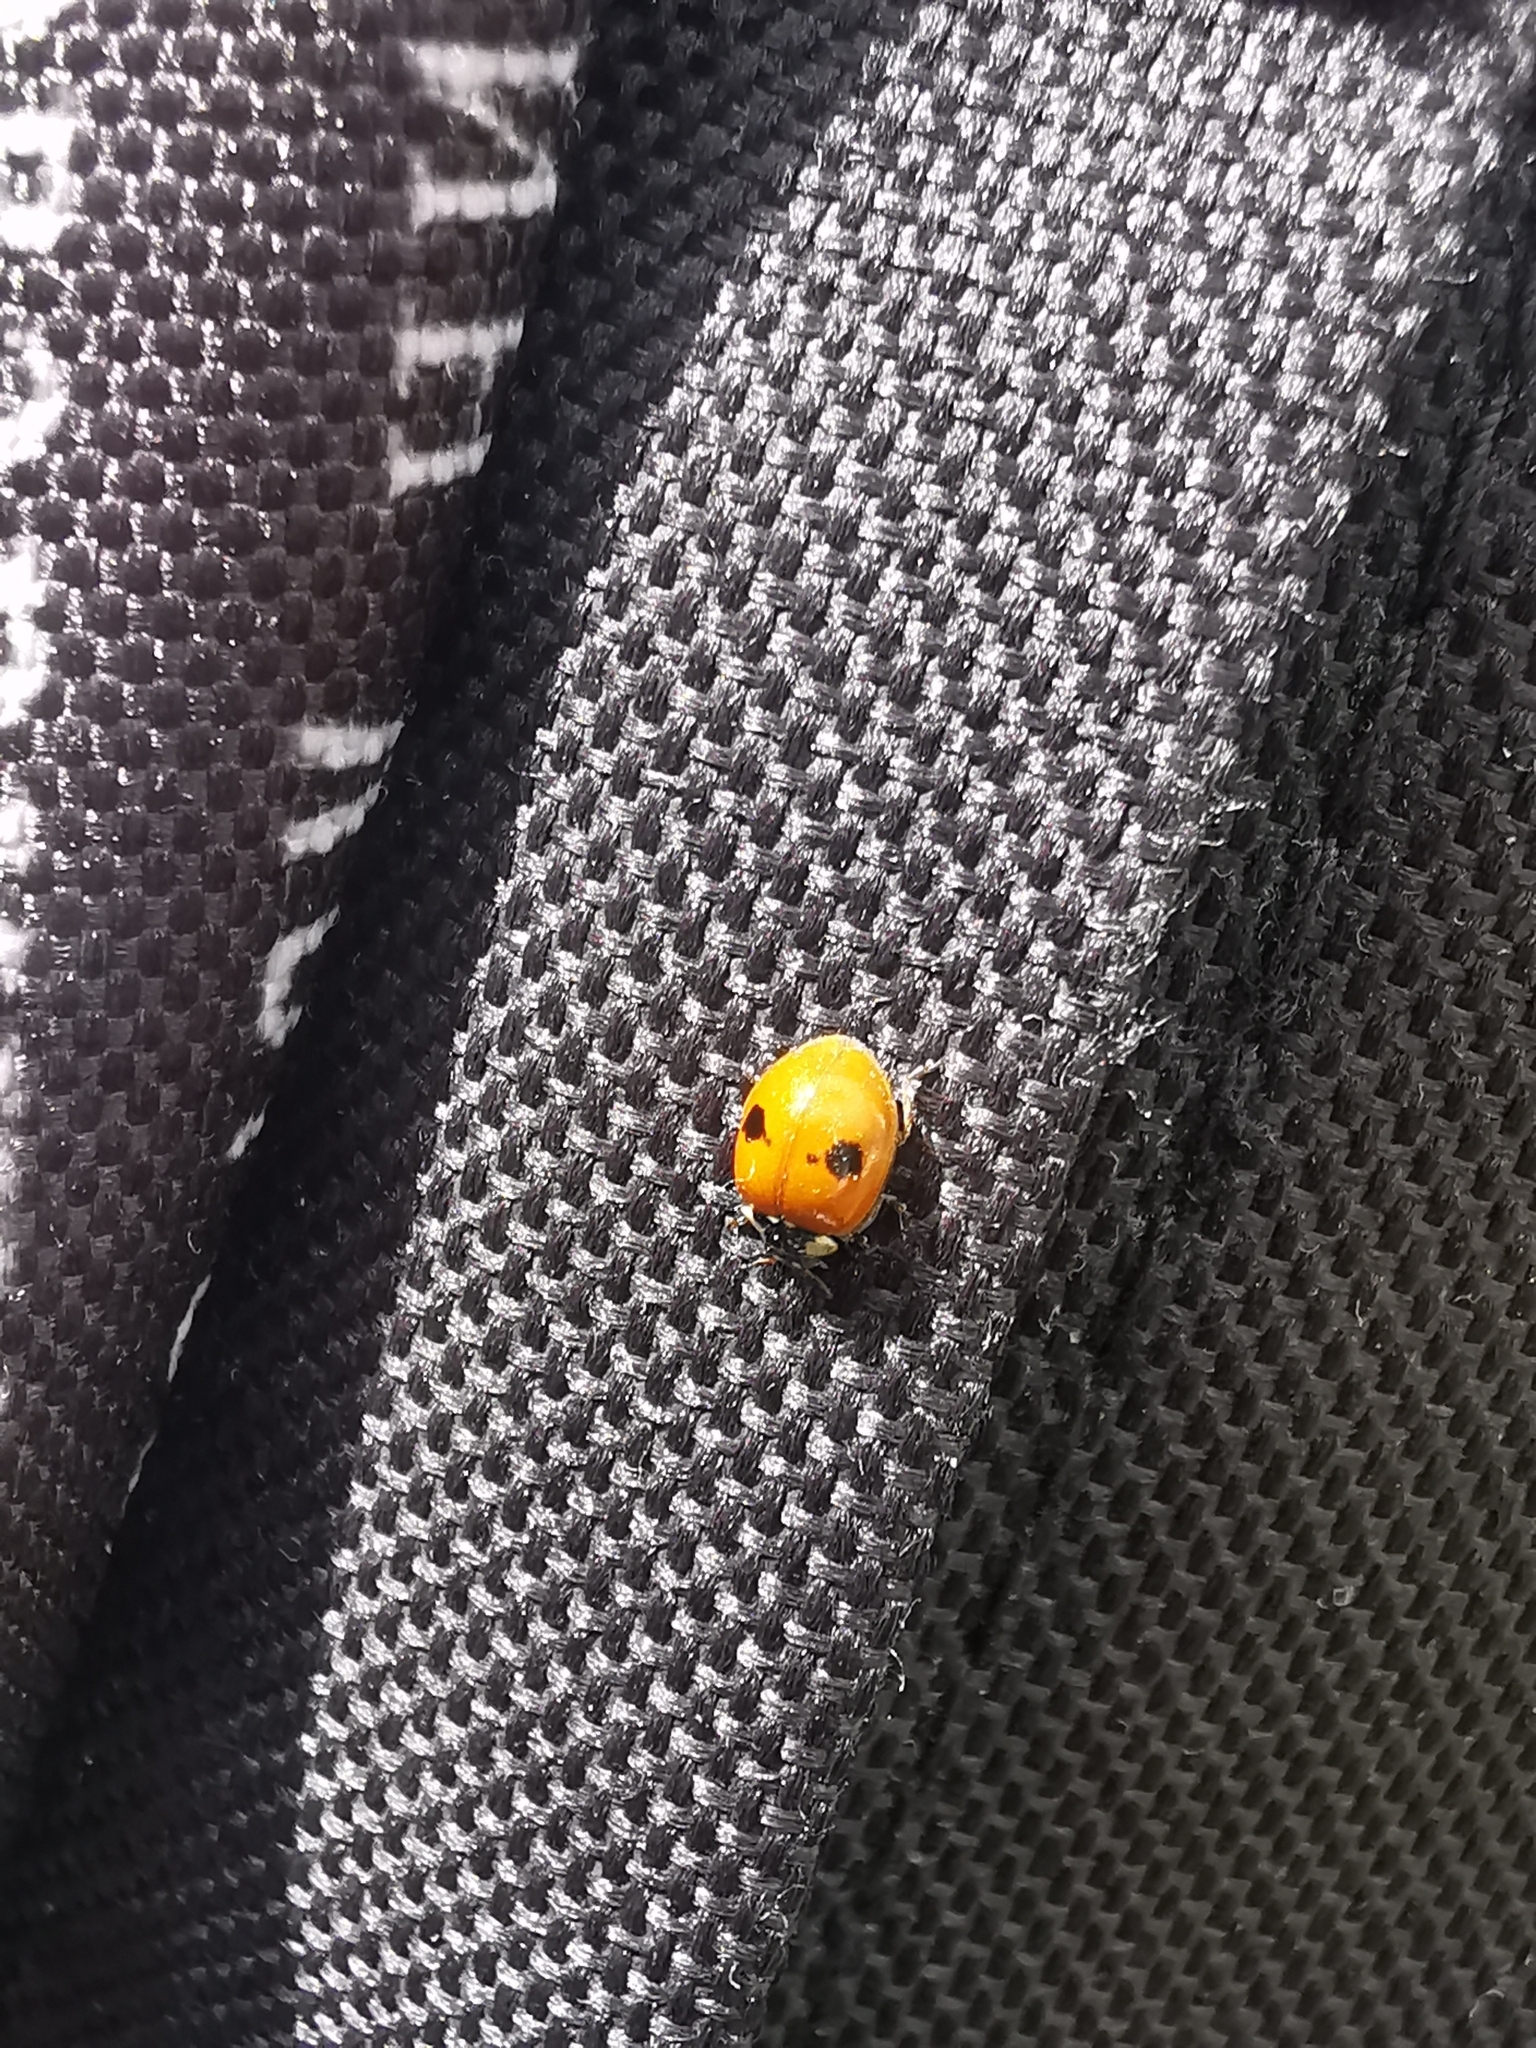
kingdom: Animalia
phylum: Arthropoda
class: Insecta
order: Coleoptera
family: Coccinellidae
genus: Adalia
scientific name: Adalia bipunctata
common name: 2-spot ladybird
